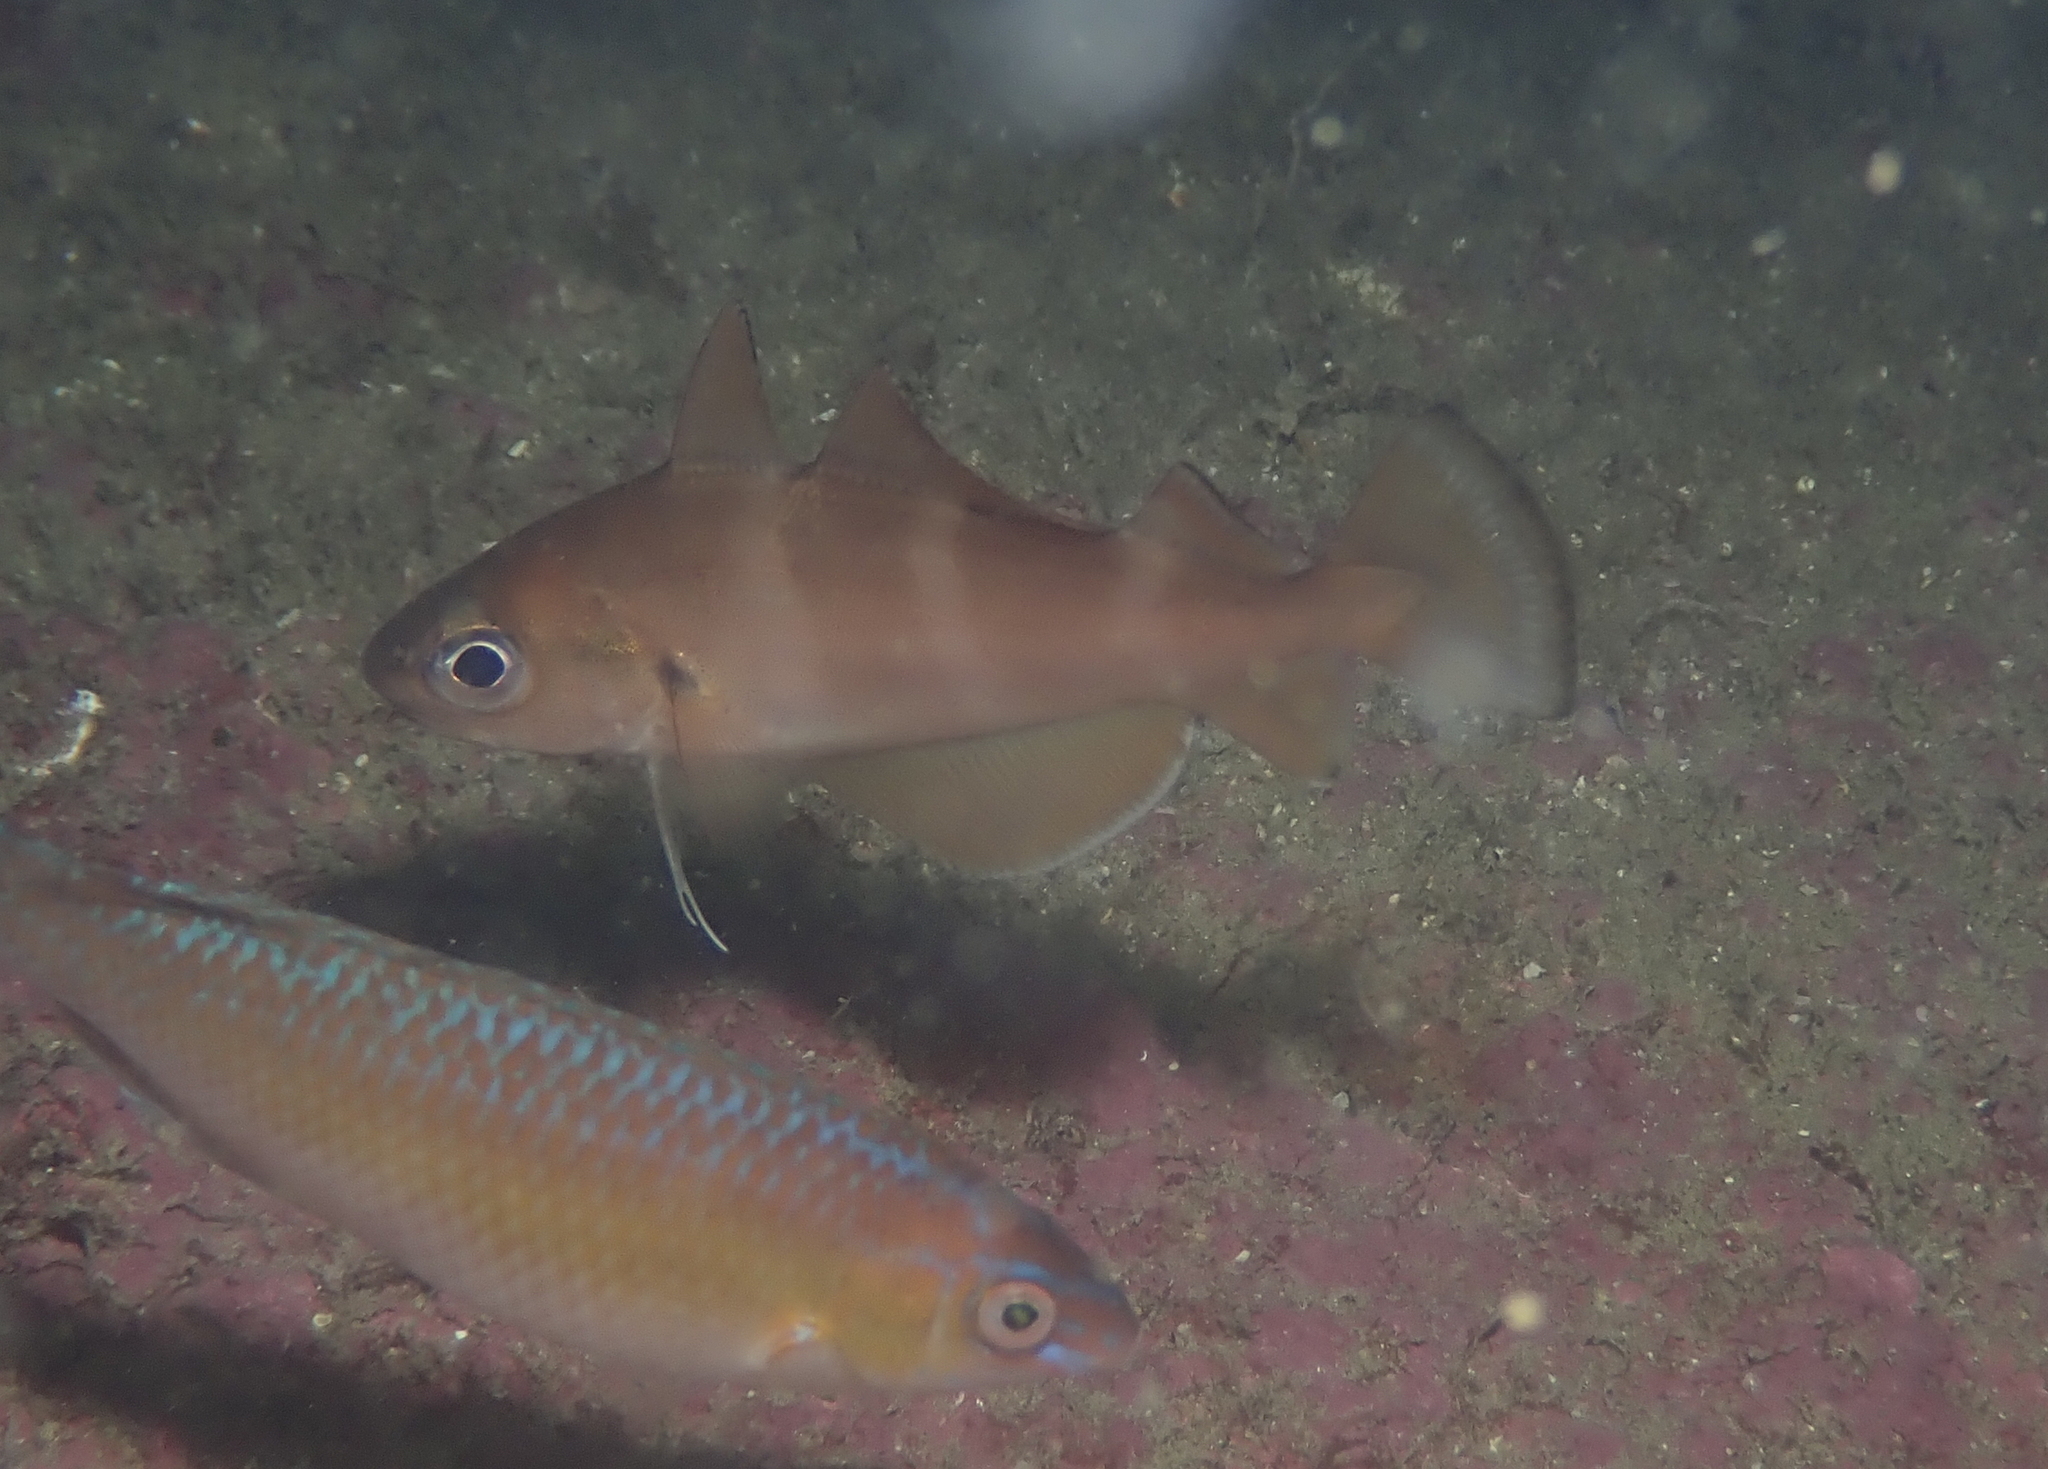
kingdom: Animalia
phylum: Chordata
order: Gadiformes
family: Gadidae
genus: Trisopterus
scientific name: Trisopterus luscus
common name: Bib
